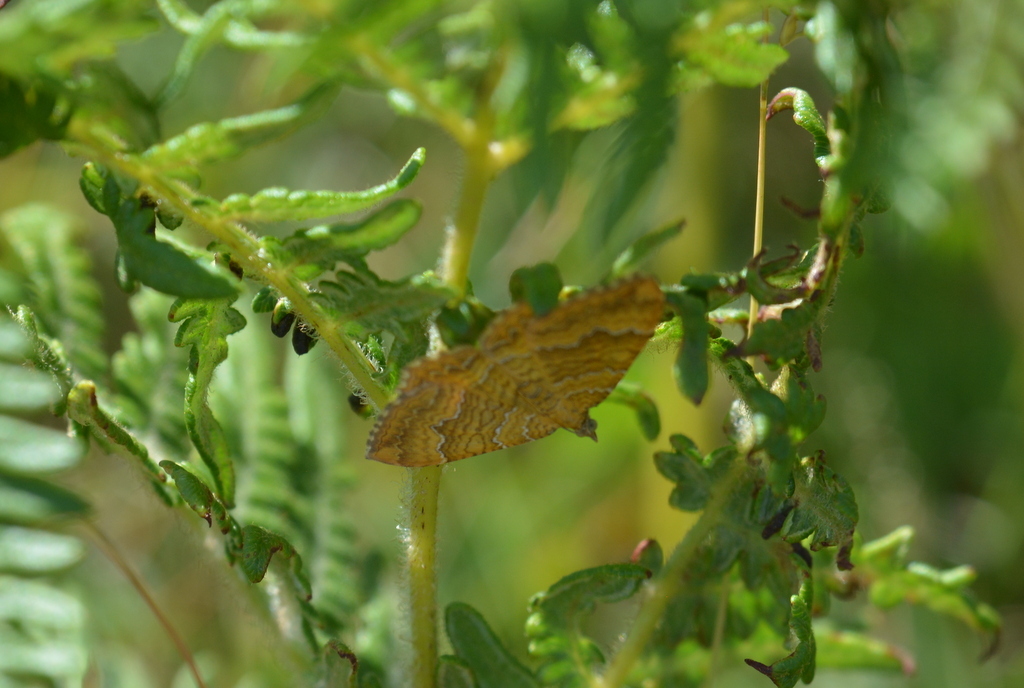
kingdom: Animalia
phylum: Arthropoda
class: Insecta
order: Lepidoptera
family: Geometridae
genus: Camptogramma
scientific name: Camptogramma bilineata
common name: Yellow shell
